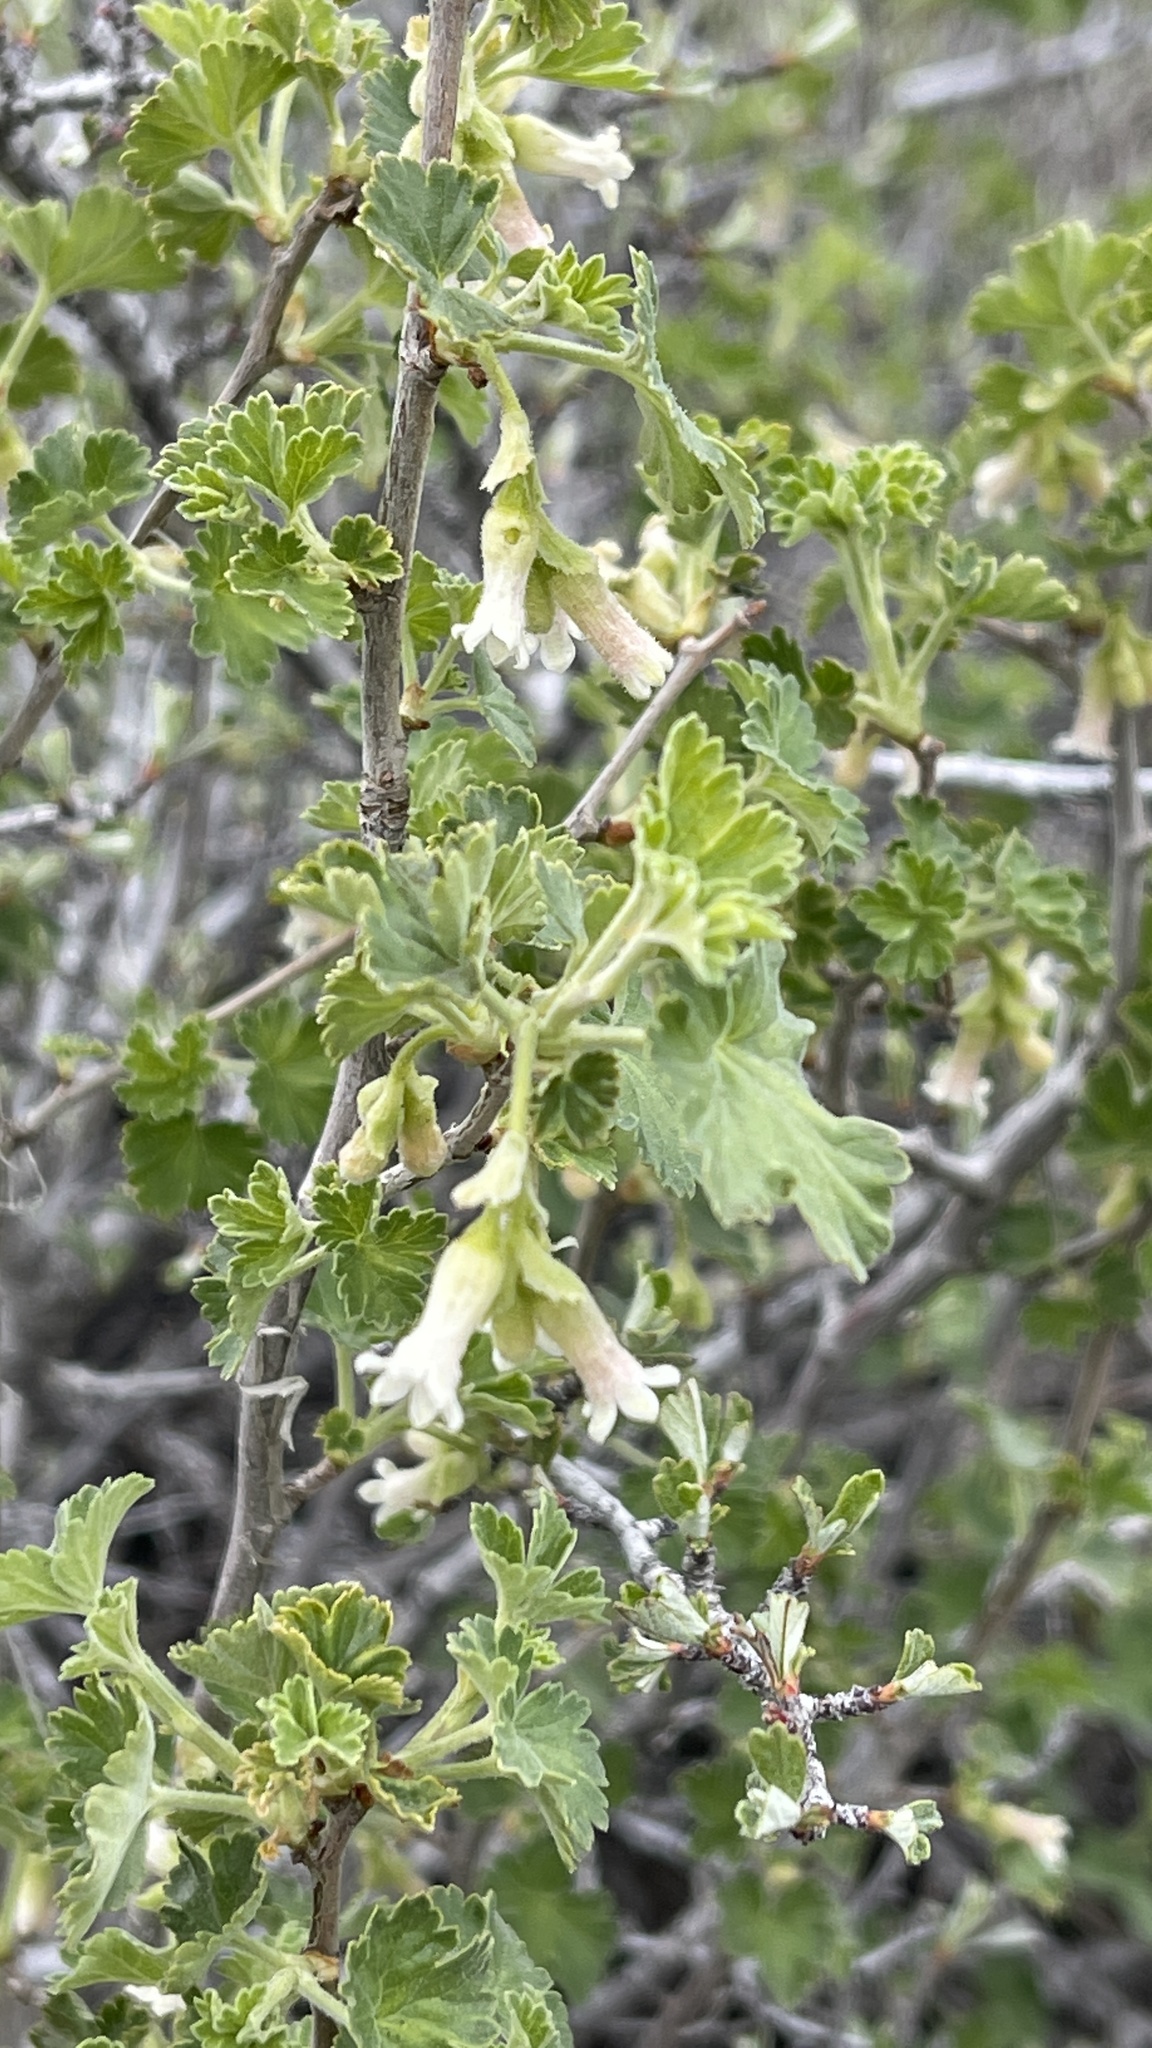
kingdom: Plantae
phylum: Tracheophyta
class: Magnoliopsida
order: Saxifragales
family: Grossulariaceae
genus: Ribes
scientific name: Ribes cereum
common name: Wax currant
